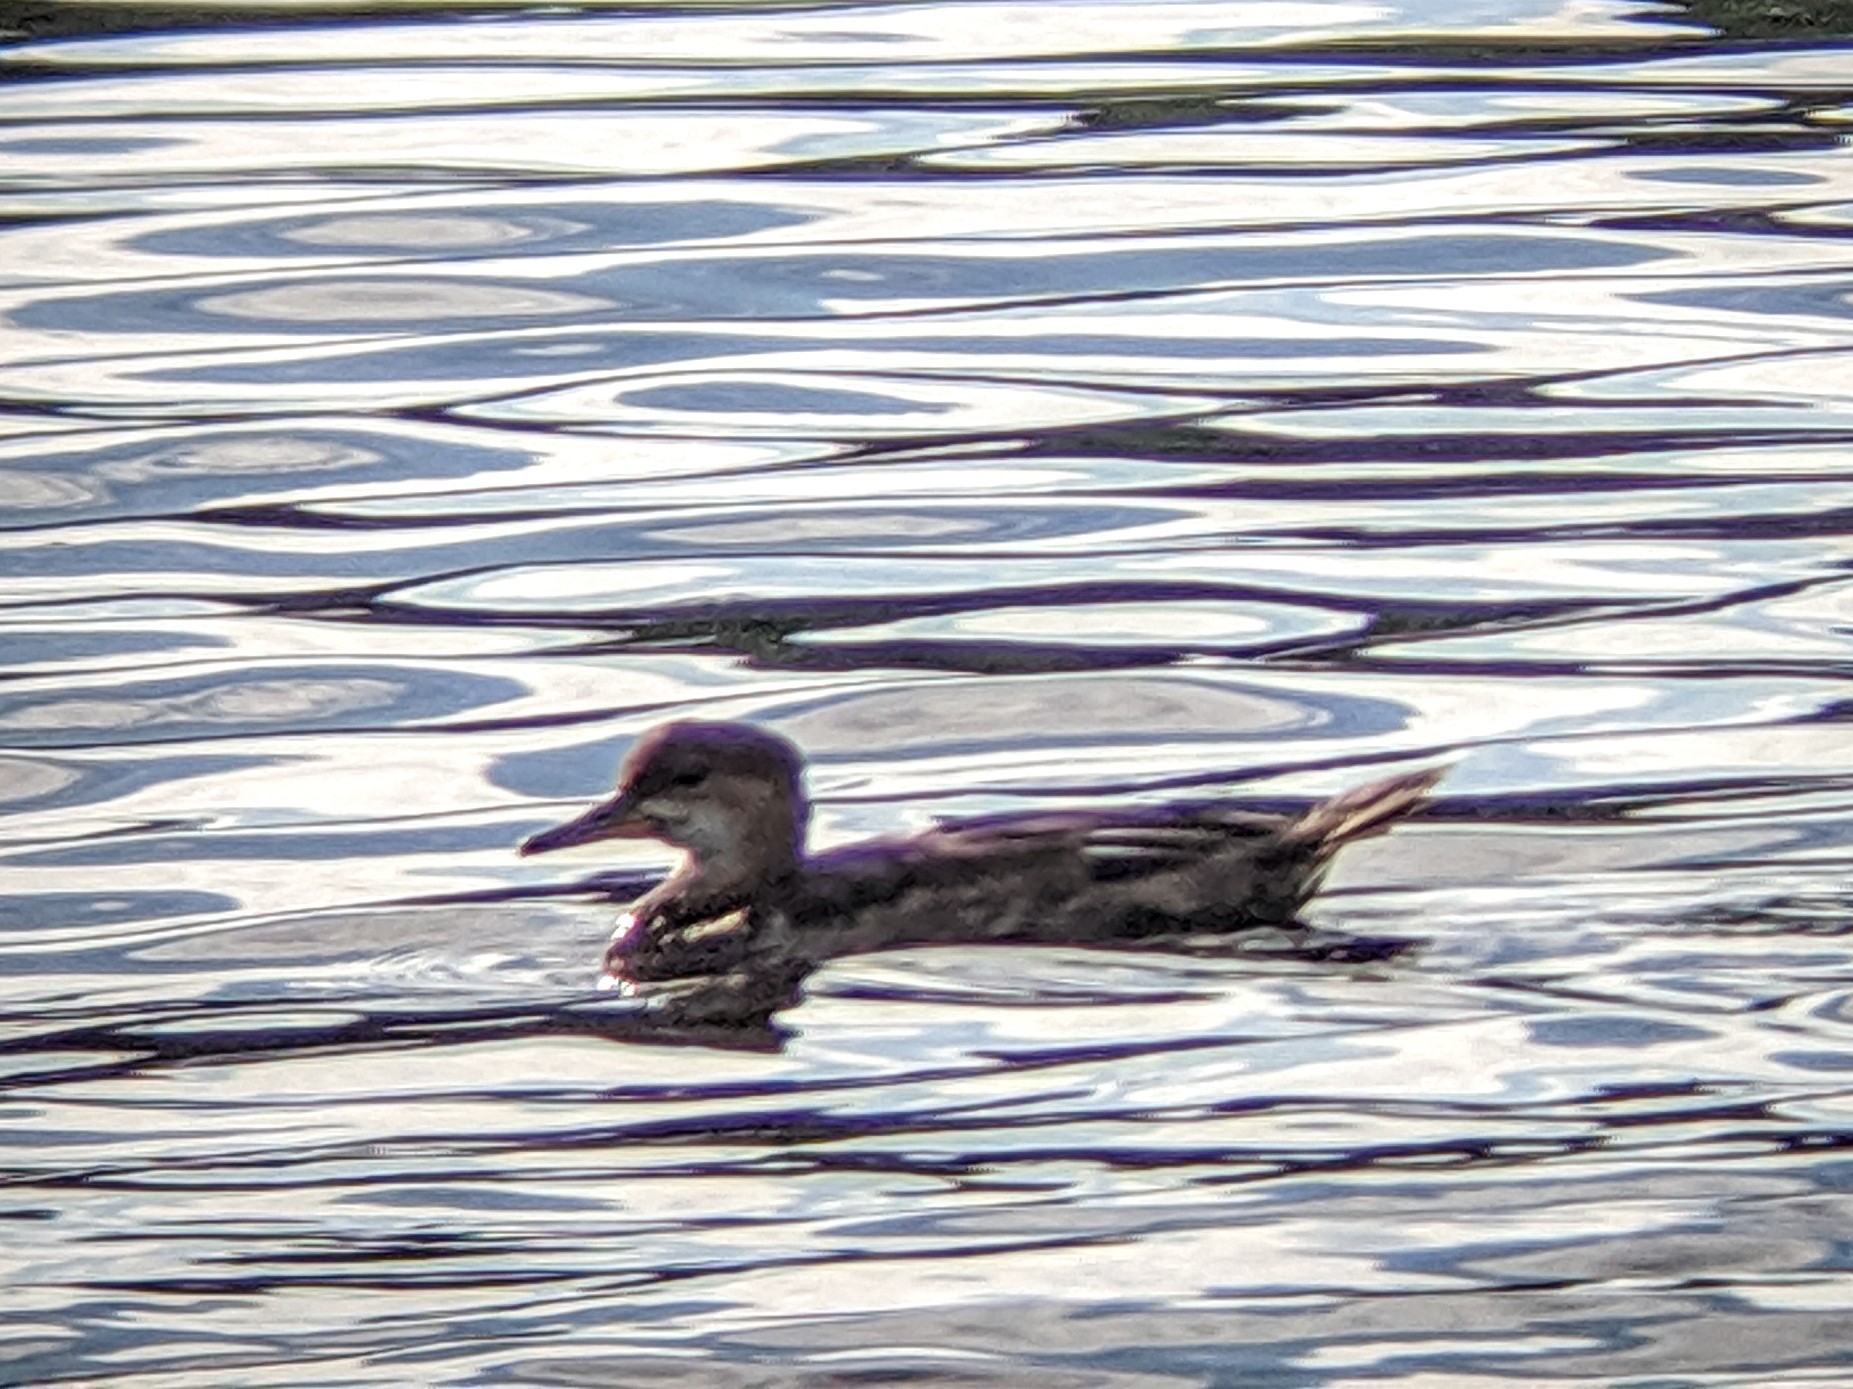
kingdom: Animalia
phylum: Chordata
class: Aves
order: Anseriformes
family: Anatidae
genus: Lophodytes
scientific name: Lophodytes cucullatus
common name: Hooded merganser
